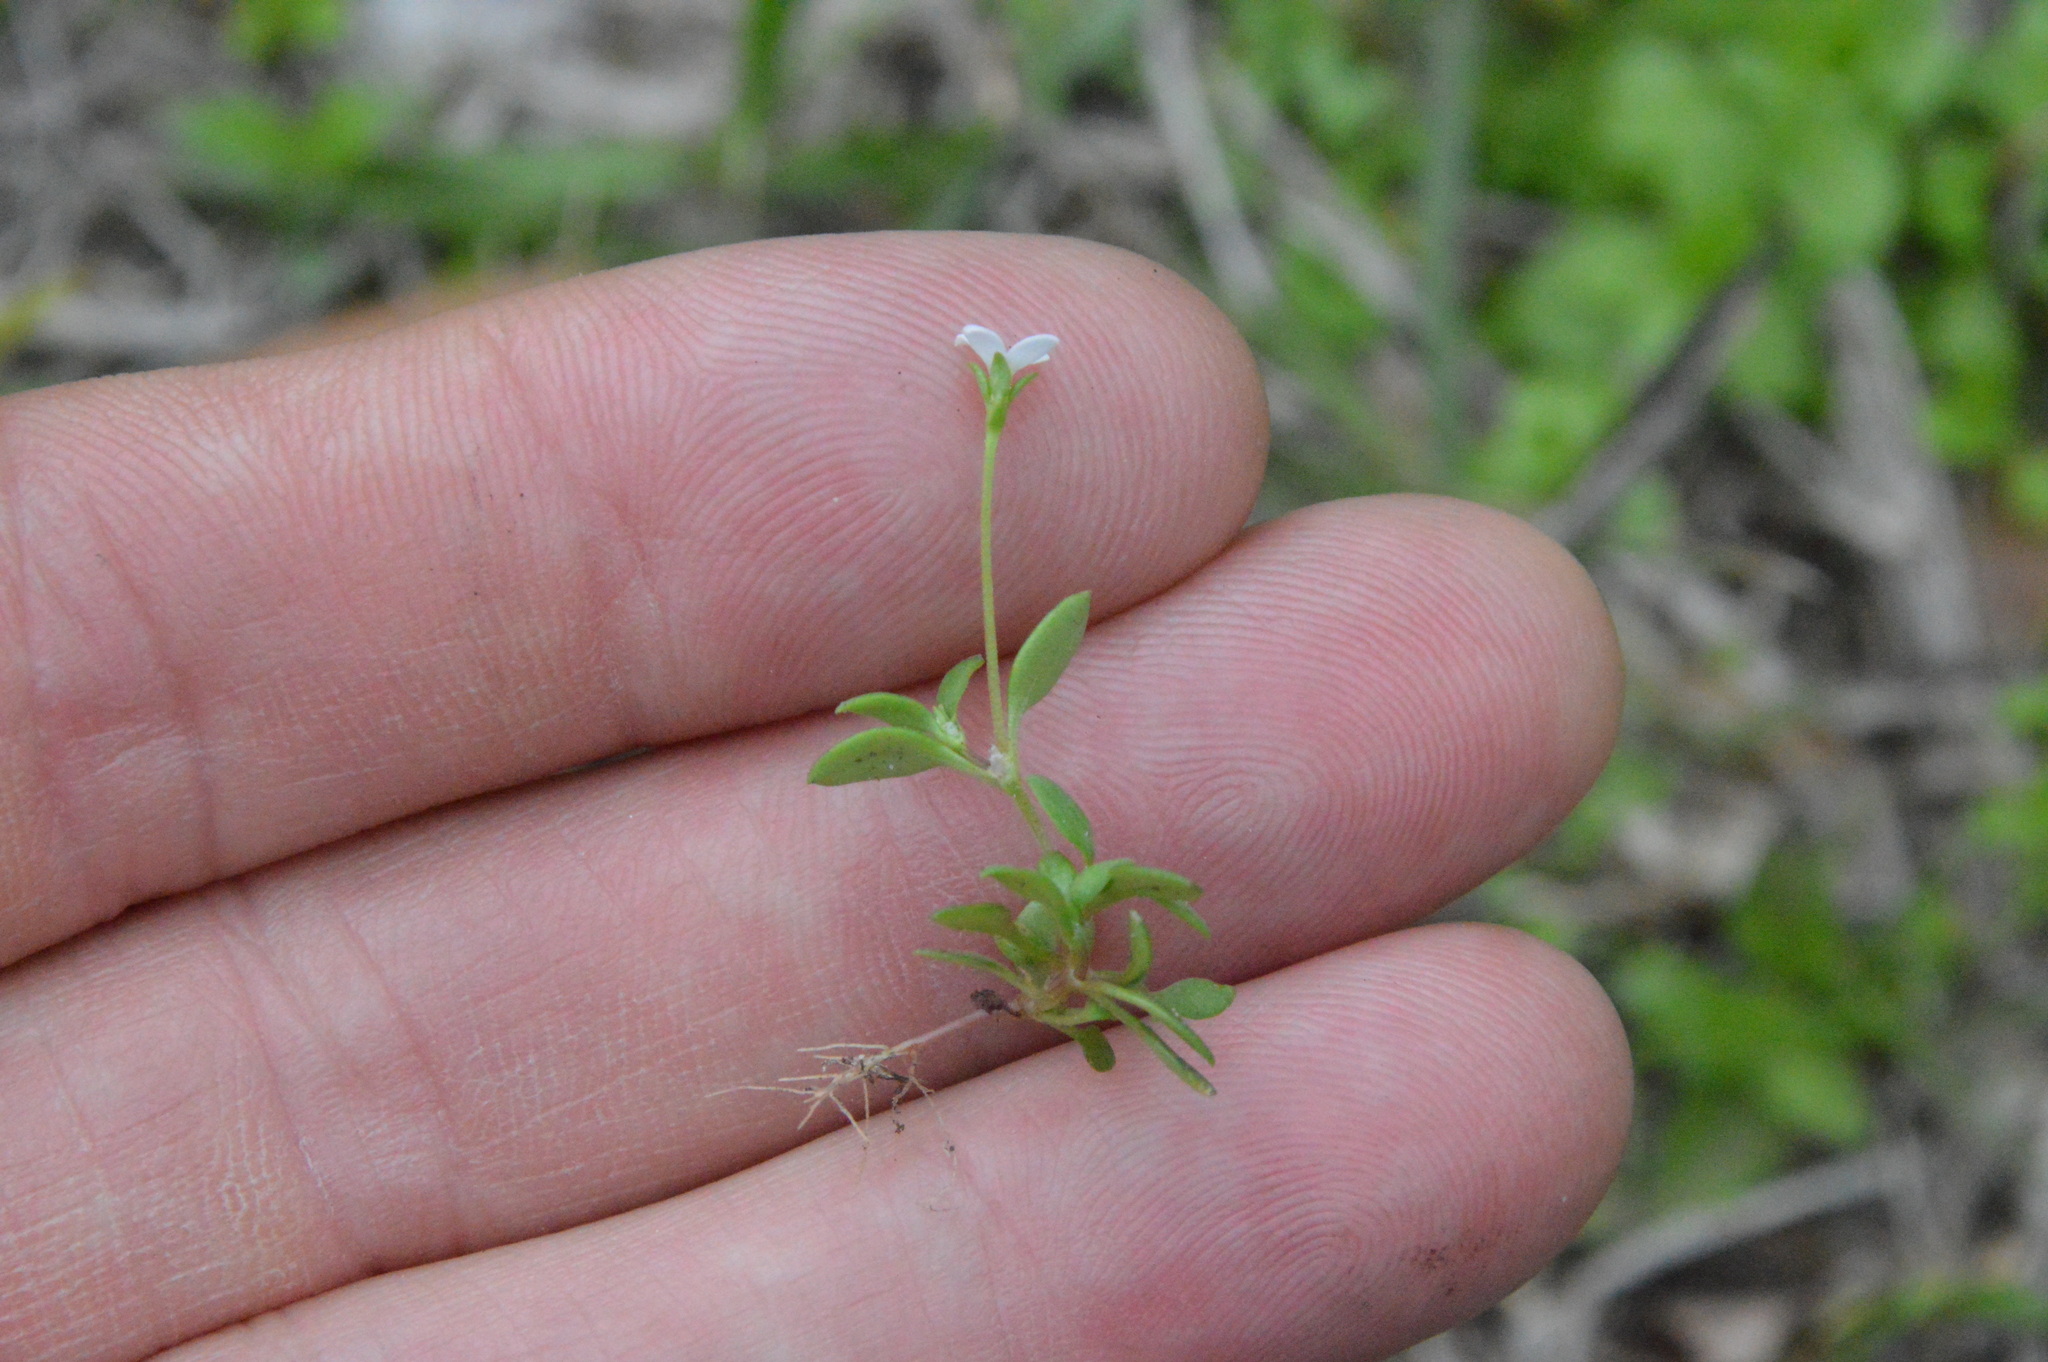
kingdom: Plantae
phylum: Tracheophyta
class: Magnoliopsida
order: Gentianales
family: Rubiaceae
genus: Houstonia
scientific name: Houstonia micrantha
